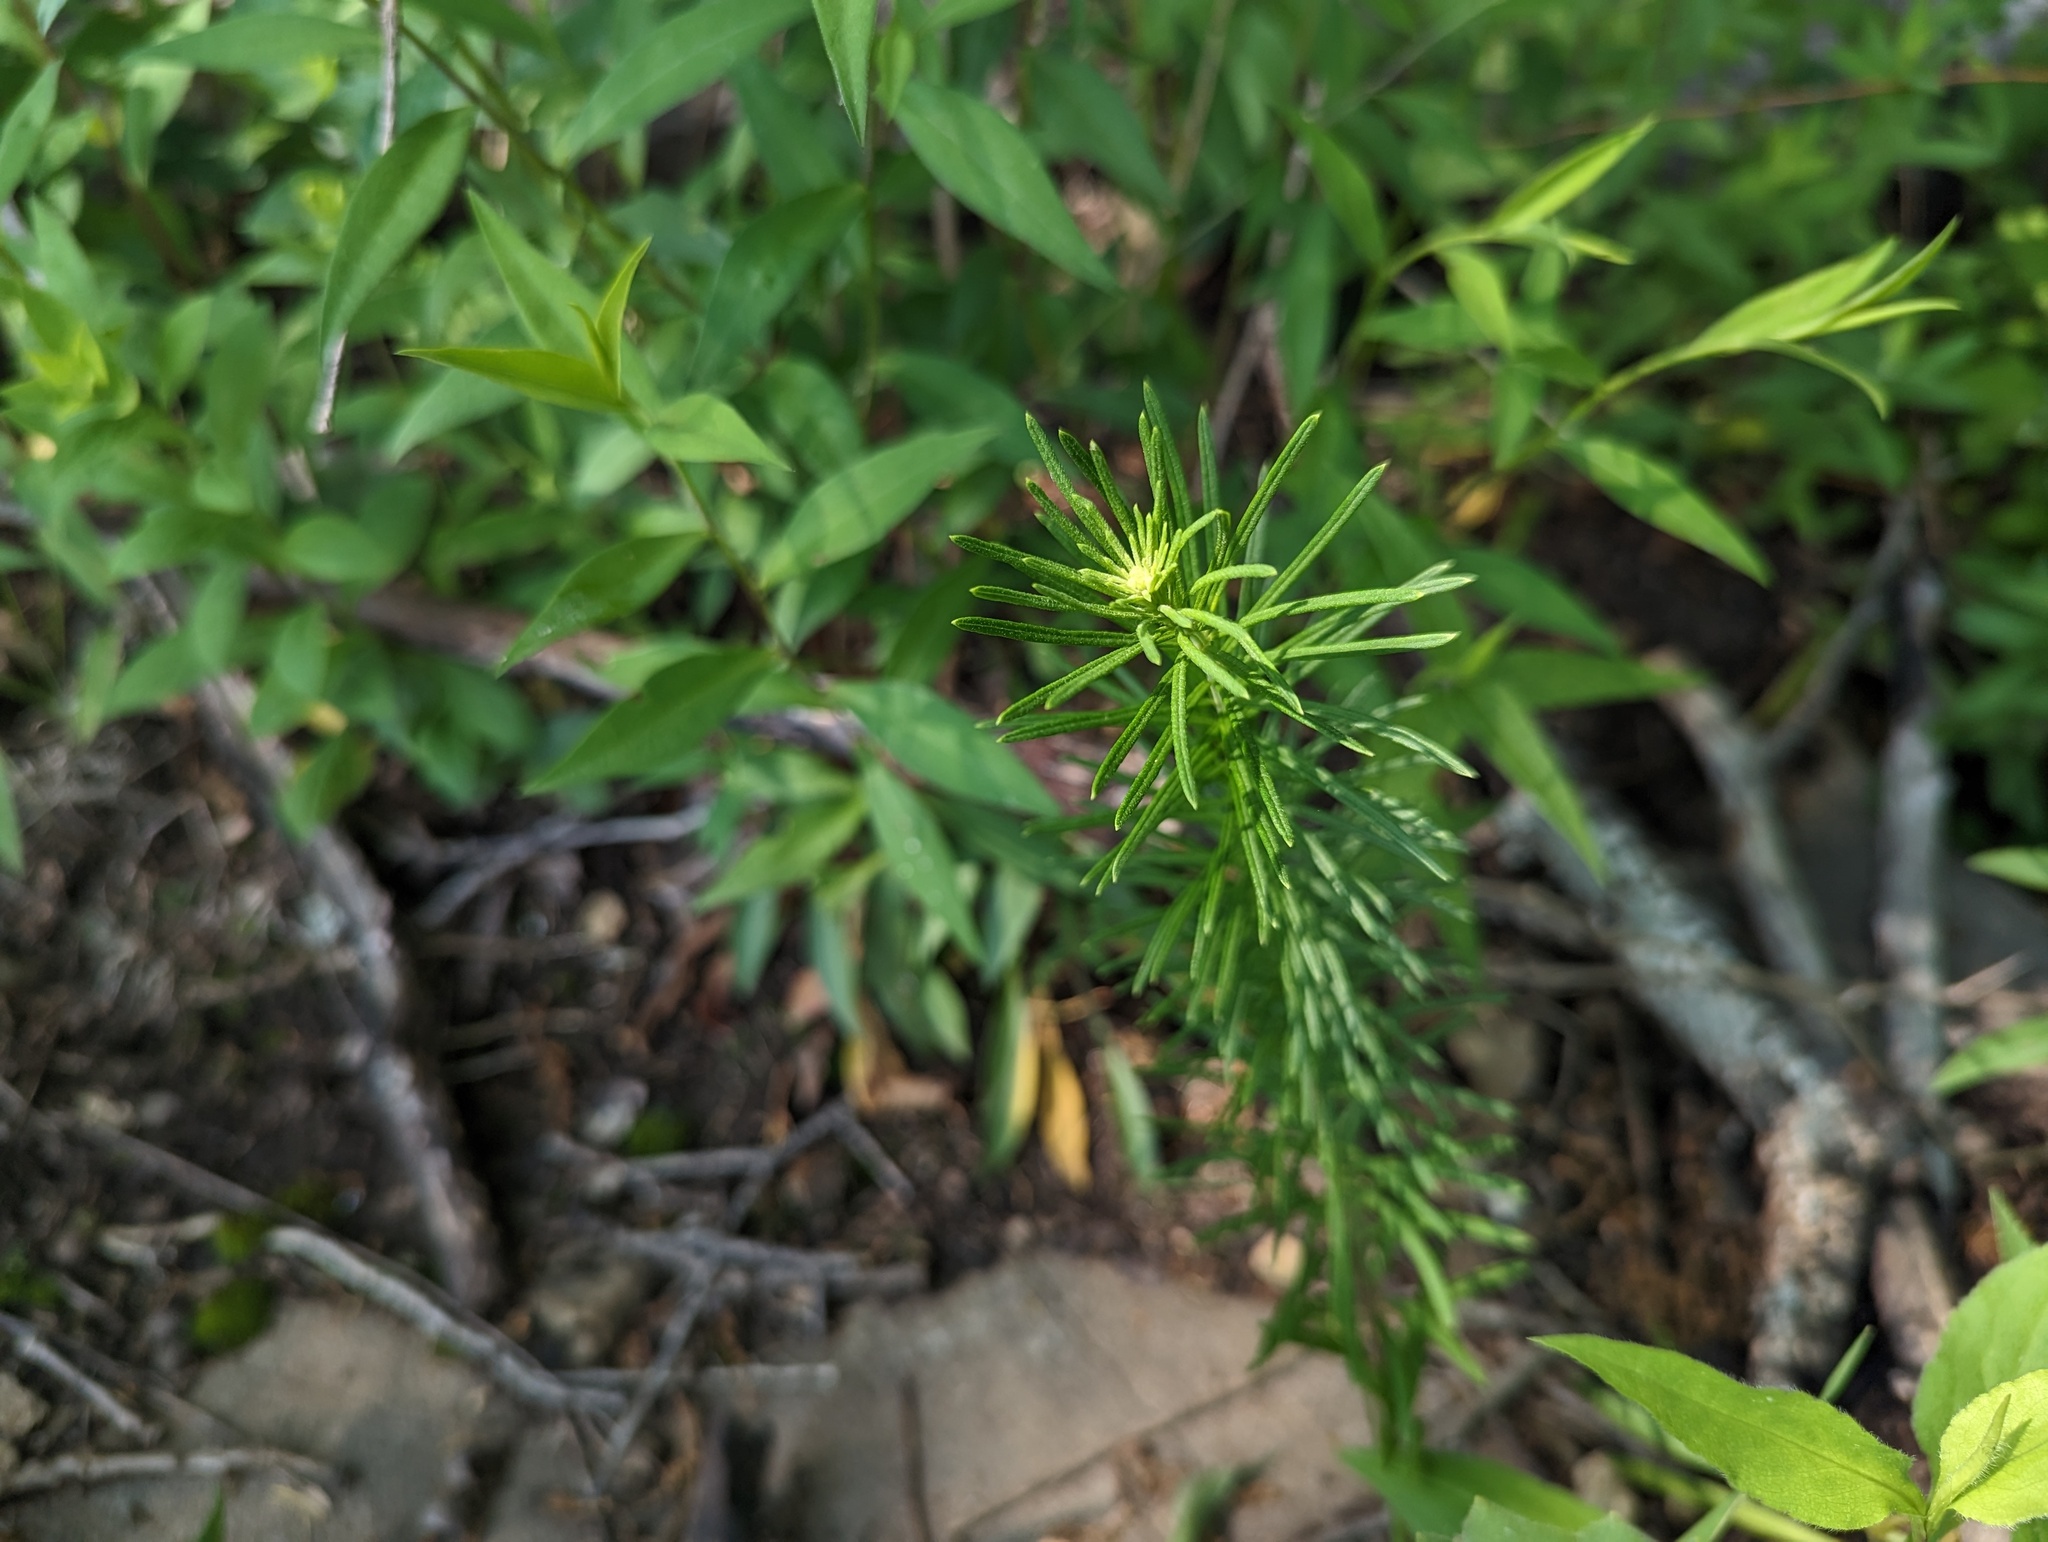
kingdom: Plantae
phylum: Tracheophyta
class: Magnoliopsida
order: Gentianales
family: Apocynaceae
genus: Asclepias
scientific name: Asclepias verticillata
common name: Eastern whorled milkweed
